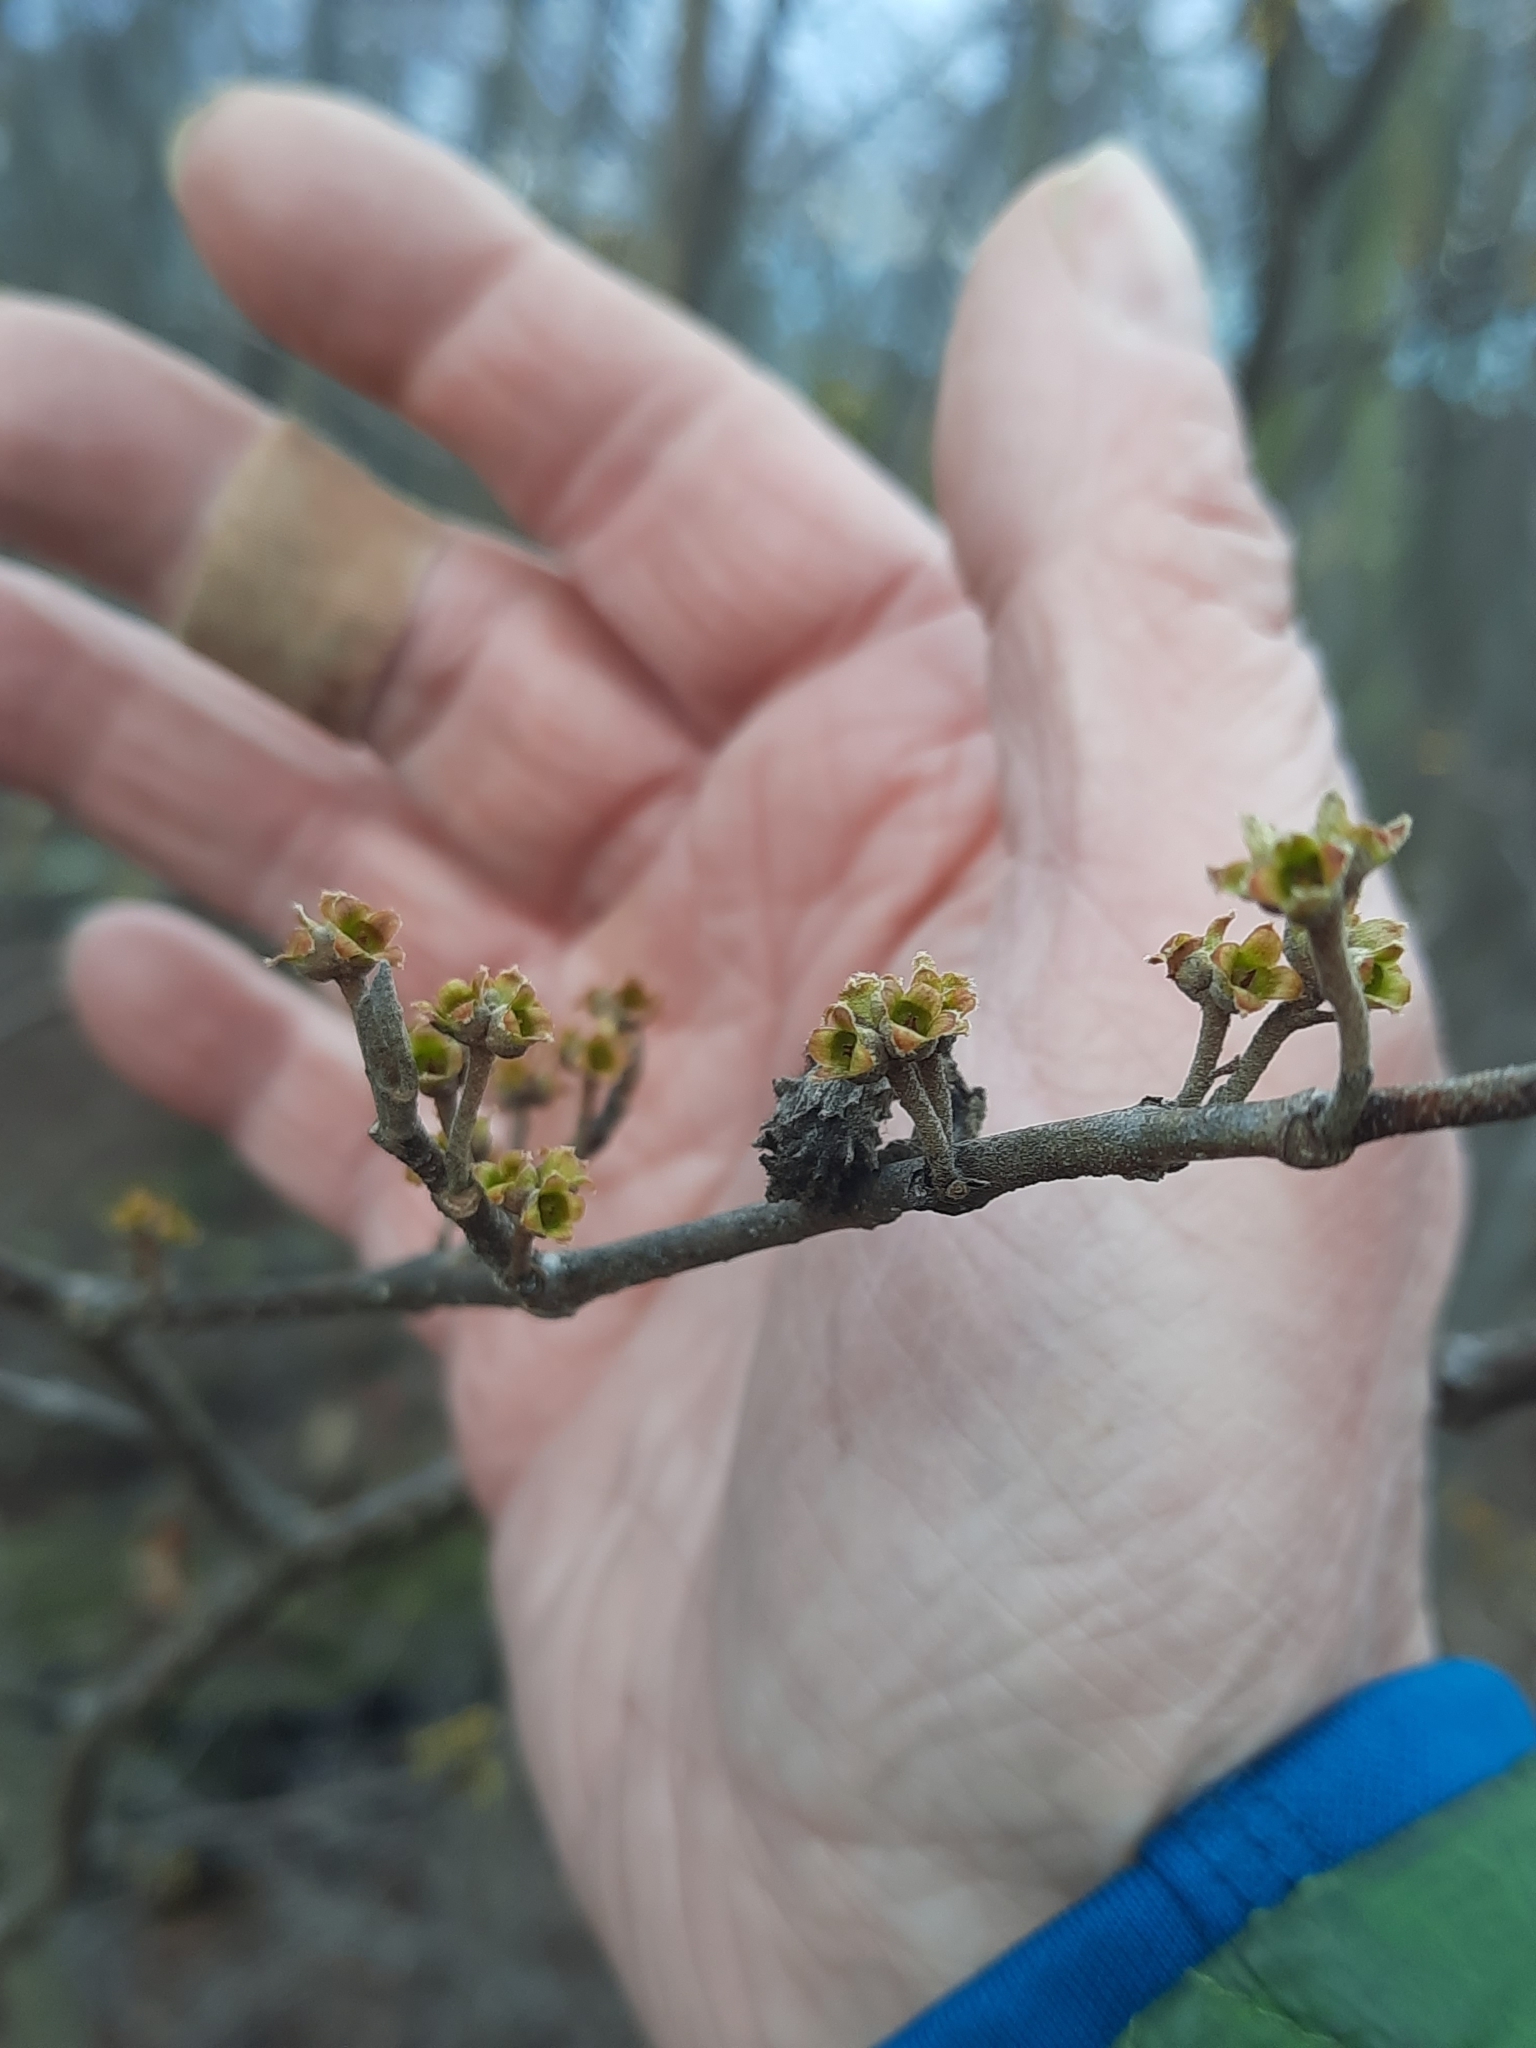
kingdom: Plantae
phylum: Tracheophyta
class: Magnoliopsida
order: Saxifragales
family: Hamamelidaceae
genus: Hamamelis
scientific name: Hamamelis virginiana
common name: Witch-hazel
